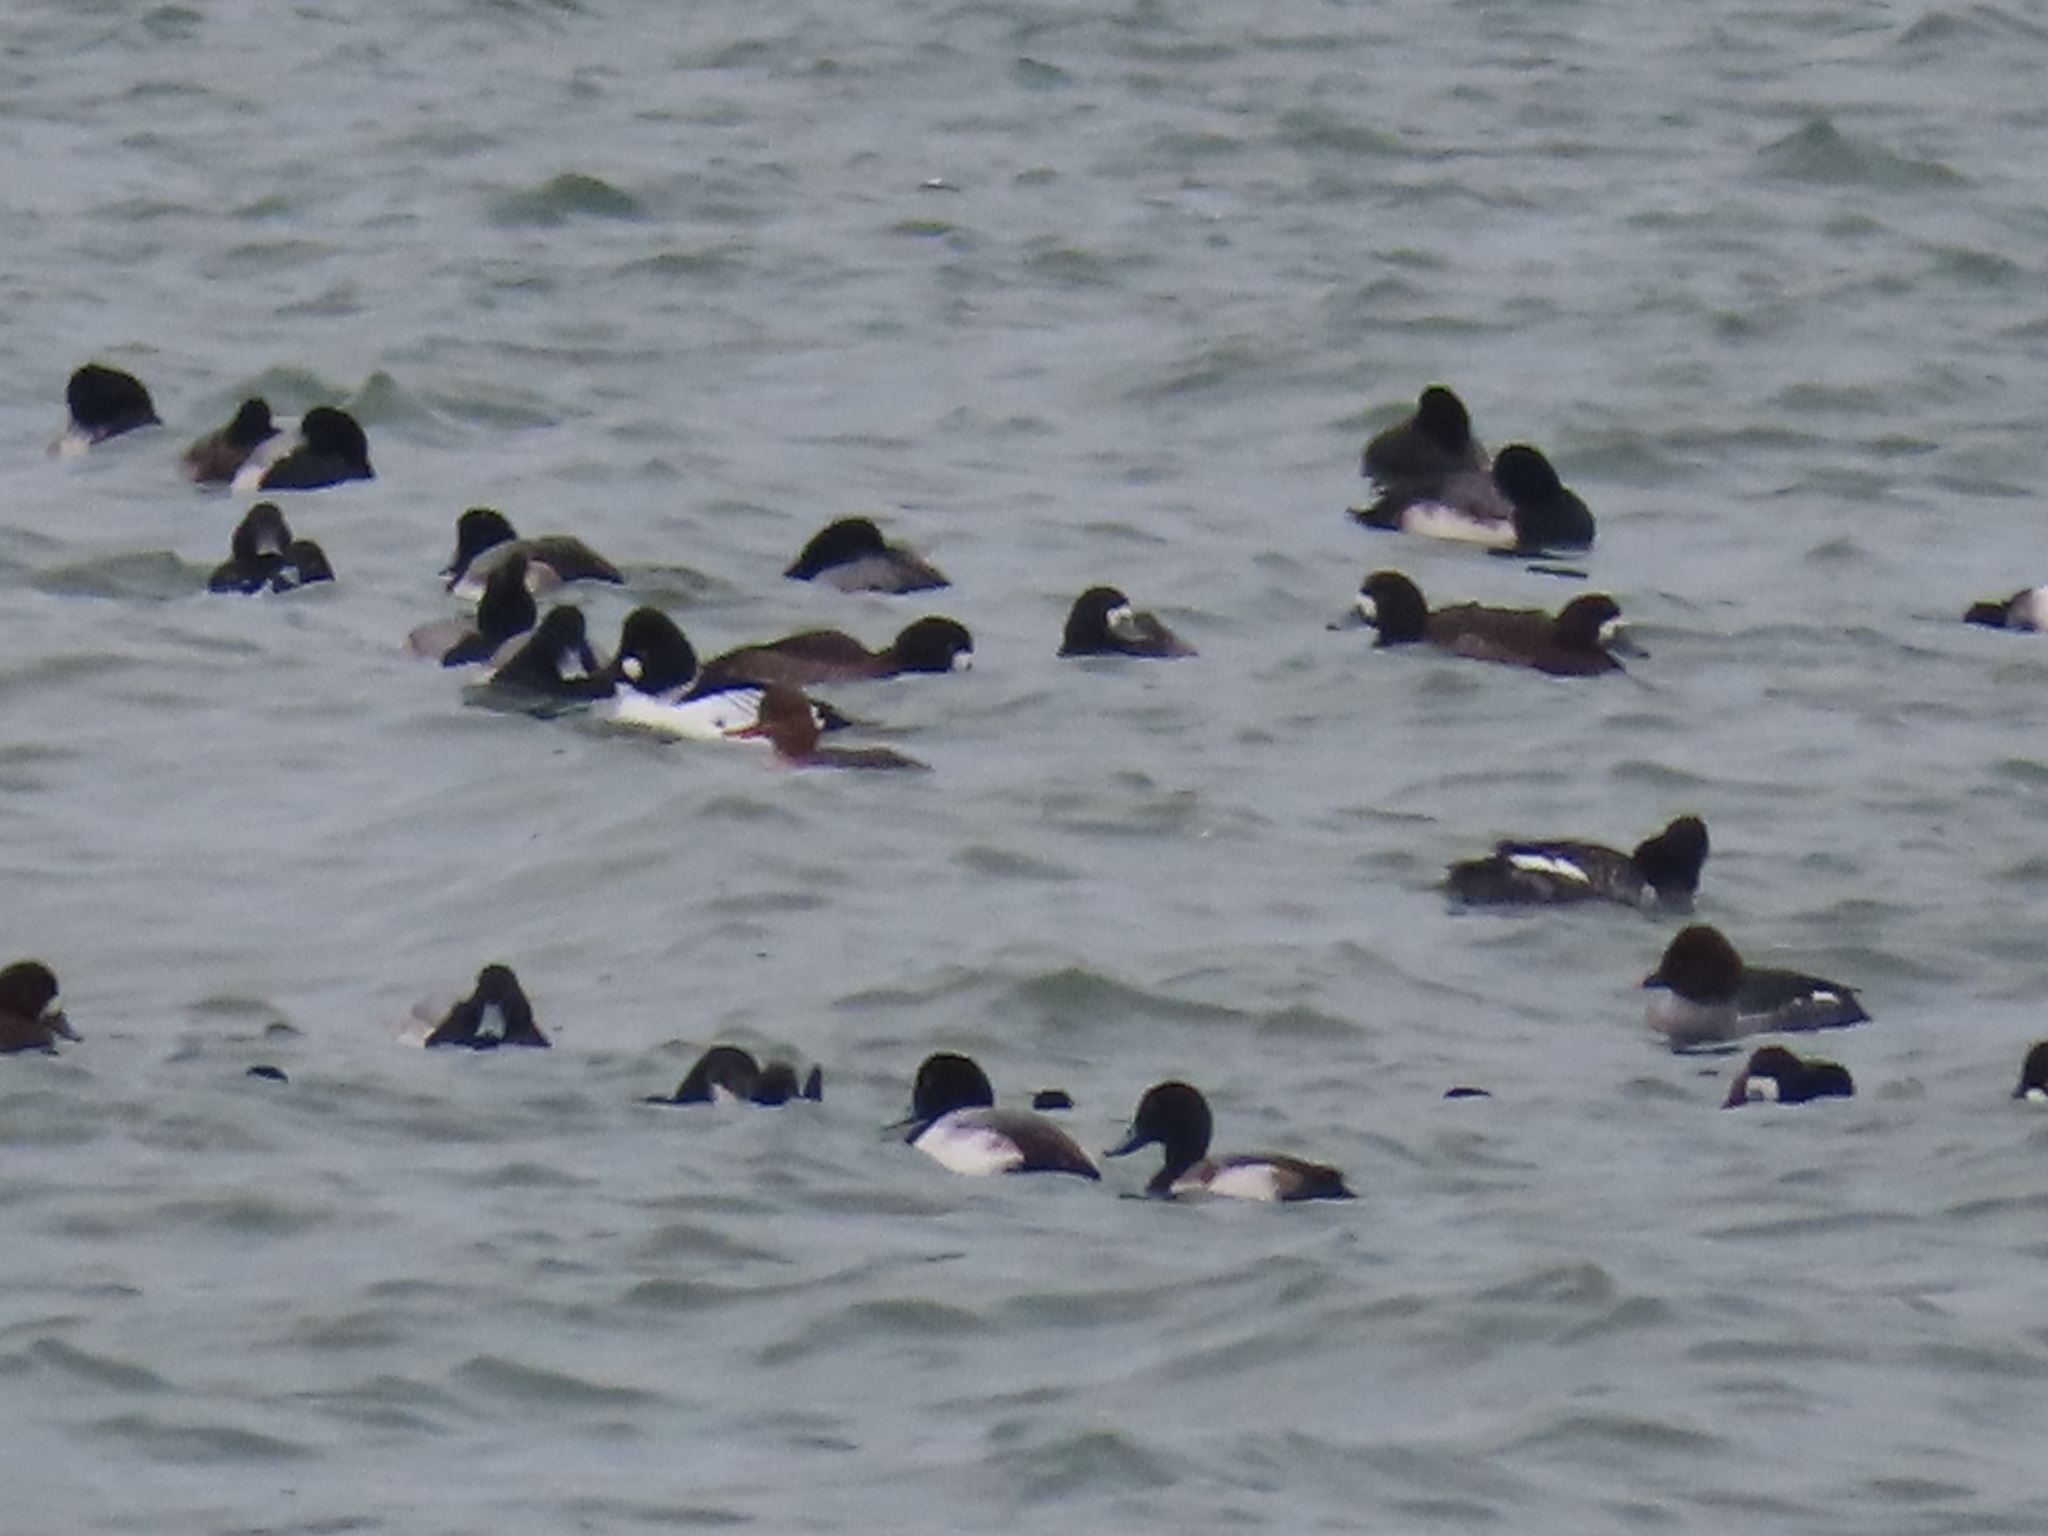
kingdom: Animalia
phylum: Chordata
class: Aves
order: Anseriformes
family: Anatidae
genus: Bucephala
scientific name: Bucephala clangula
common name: Common goldeneye
